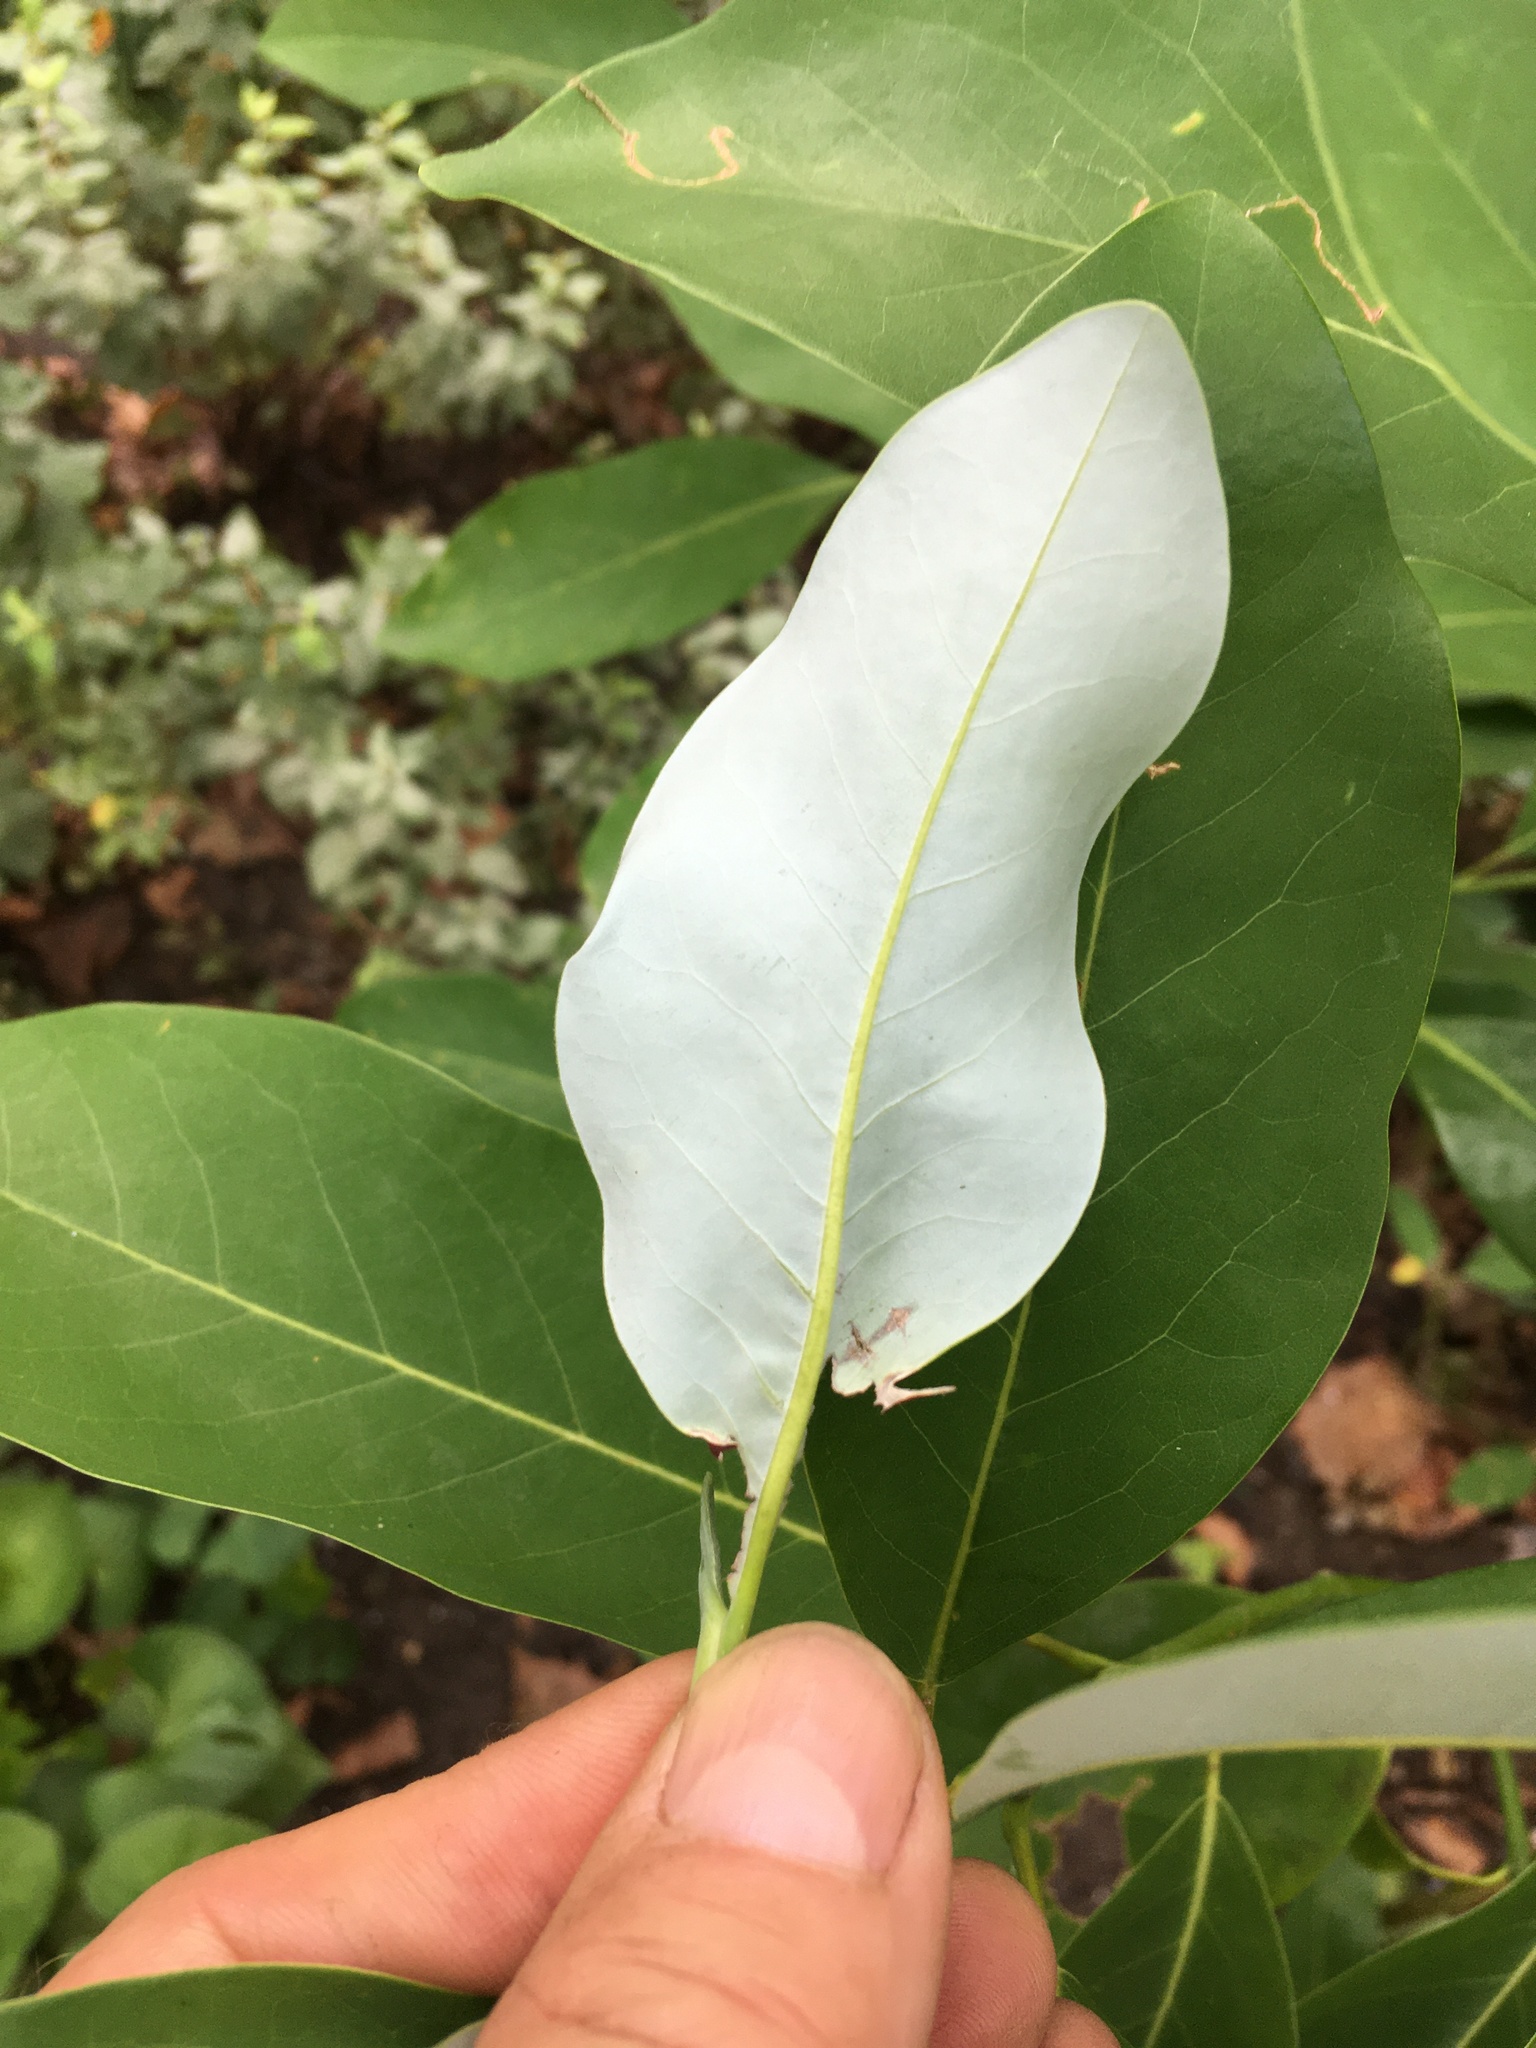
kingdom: Animalia
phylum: Arthropoda
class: Insecta
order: Lepidoptera
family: Gracillariidae
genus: Phyllocnistis
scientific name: Phyllocnistis liriodendronella
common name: Tulip tree leaf miner
